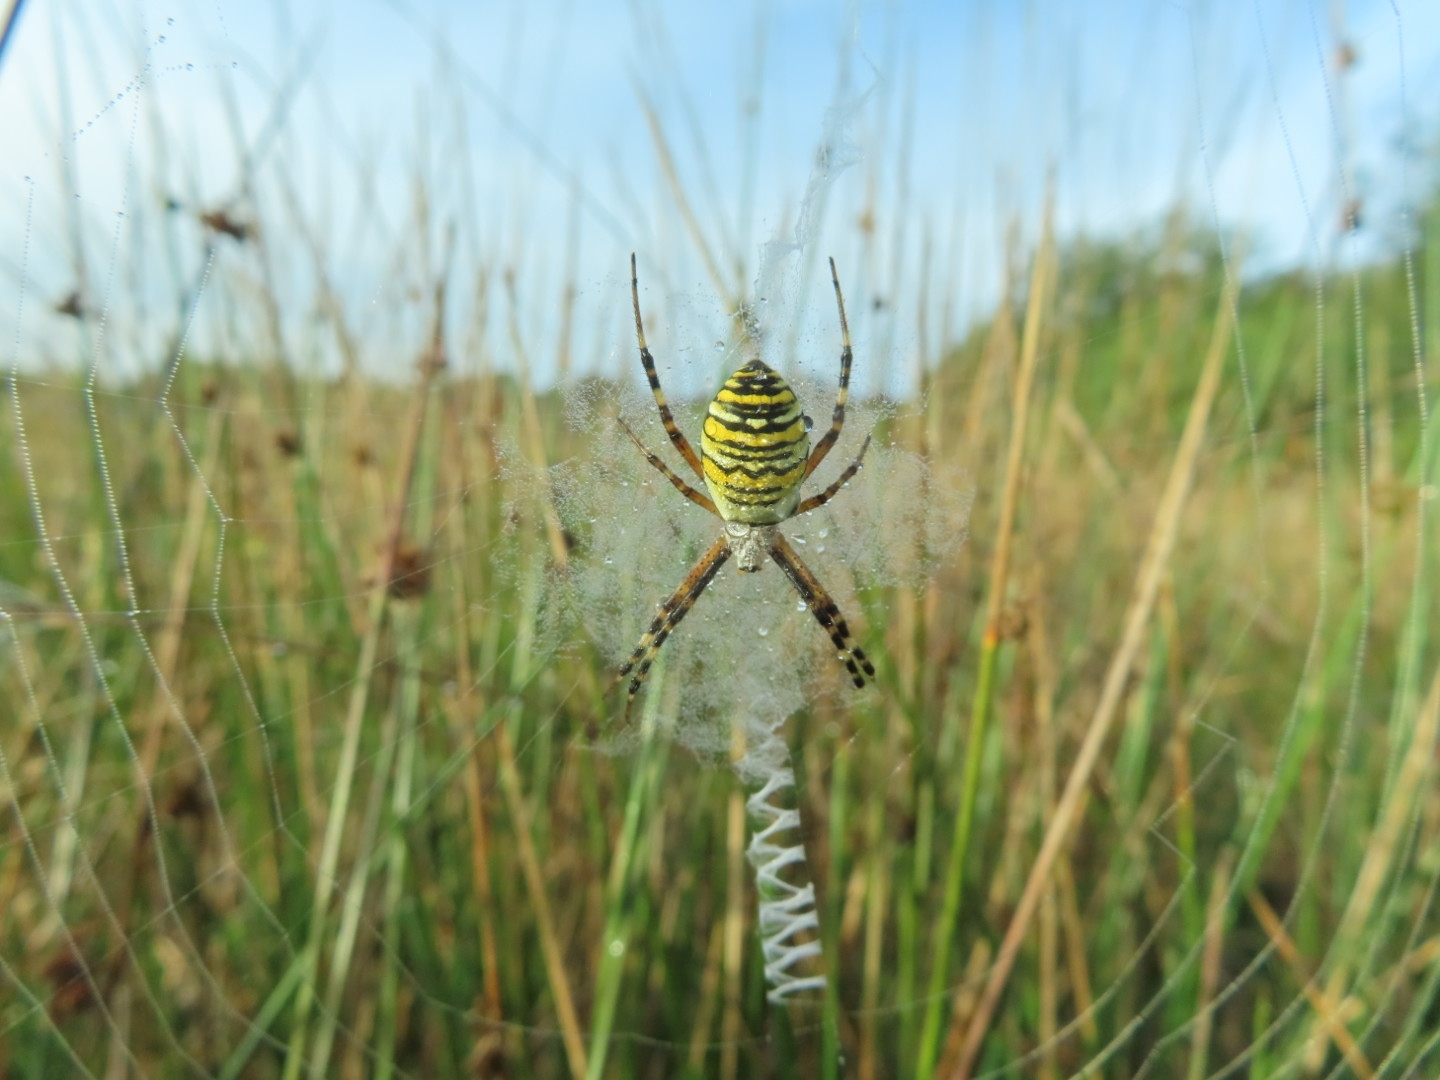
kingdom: Animalia
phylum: Arthropoda
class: Arachnida
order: Araneae
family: Araneidae
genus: Argiope
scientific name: Argiope bruennichi
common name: Wasp spider
